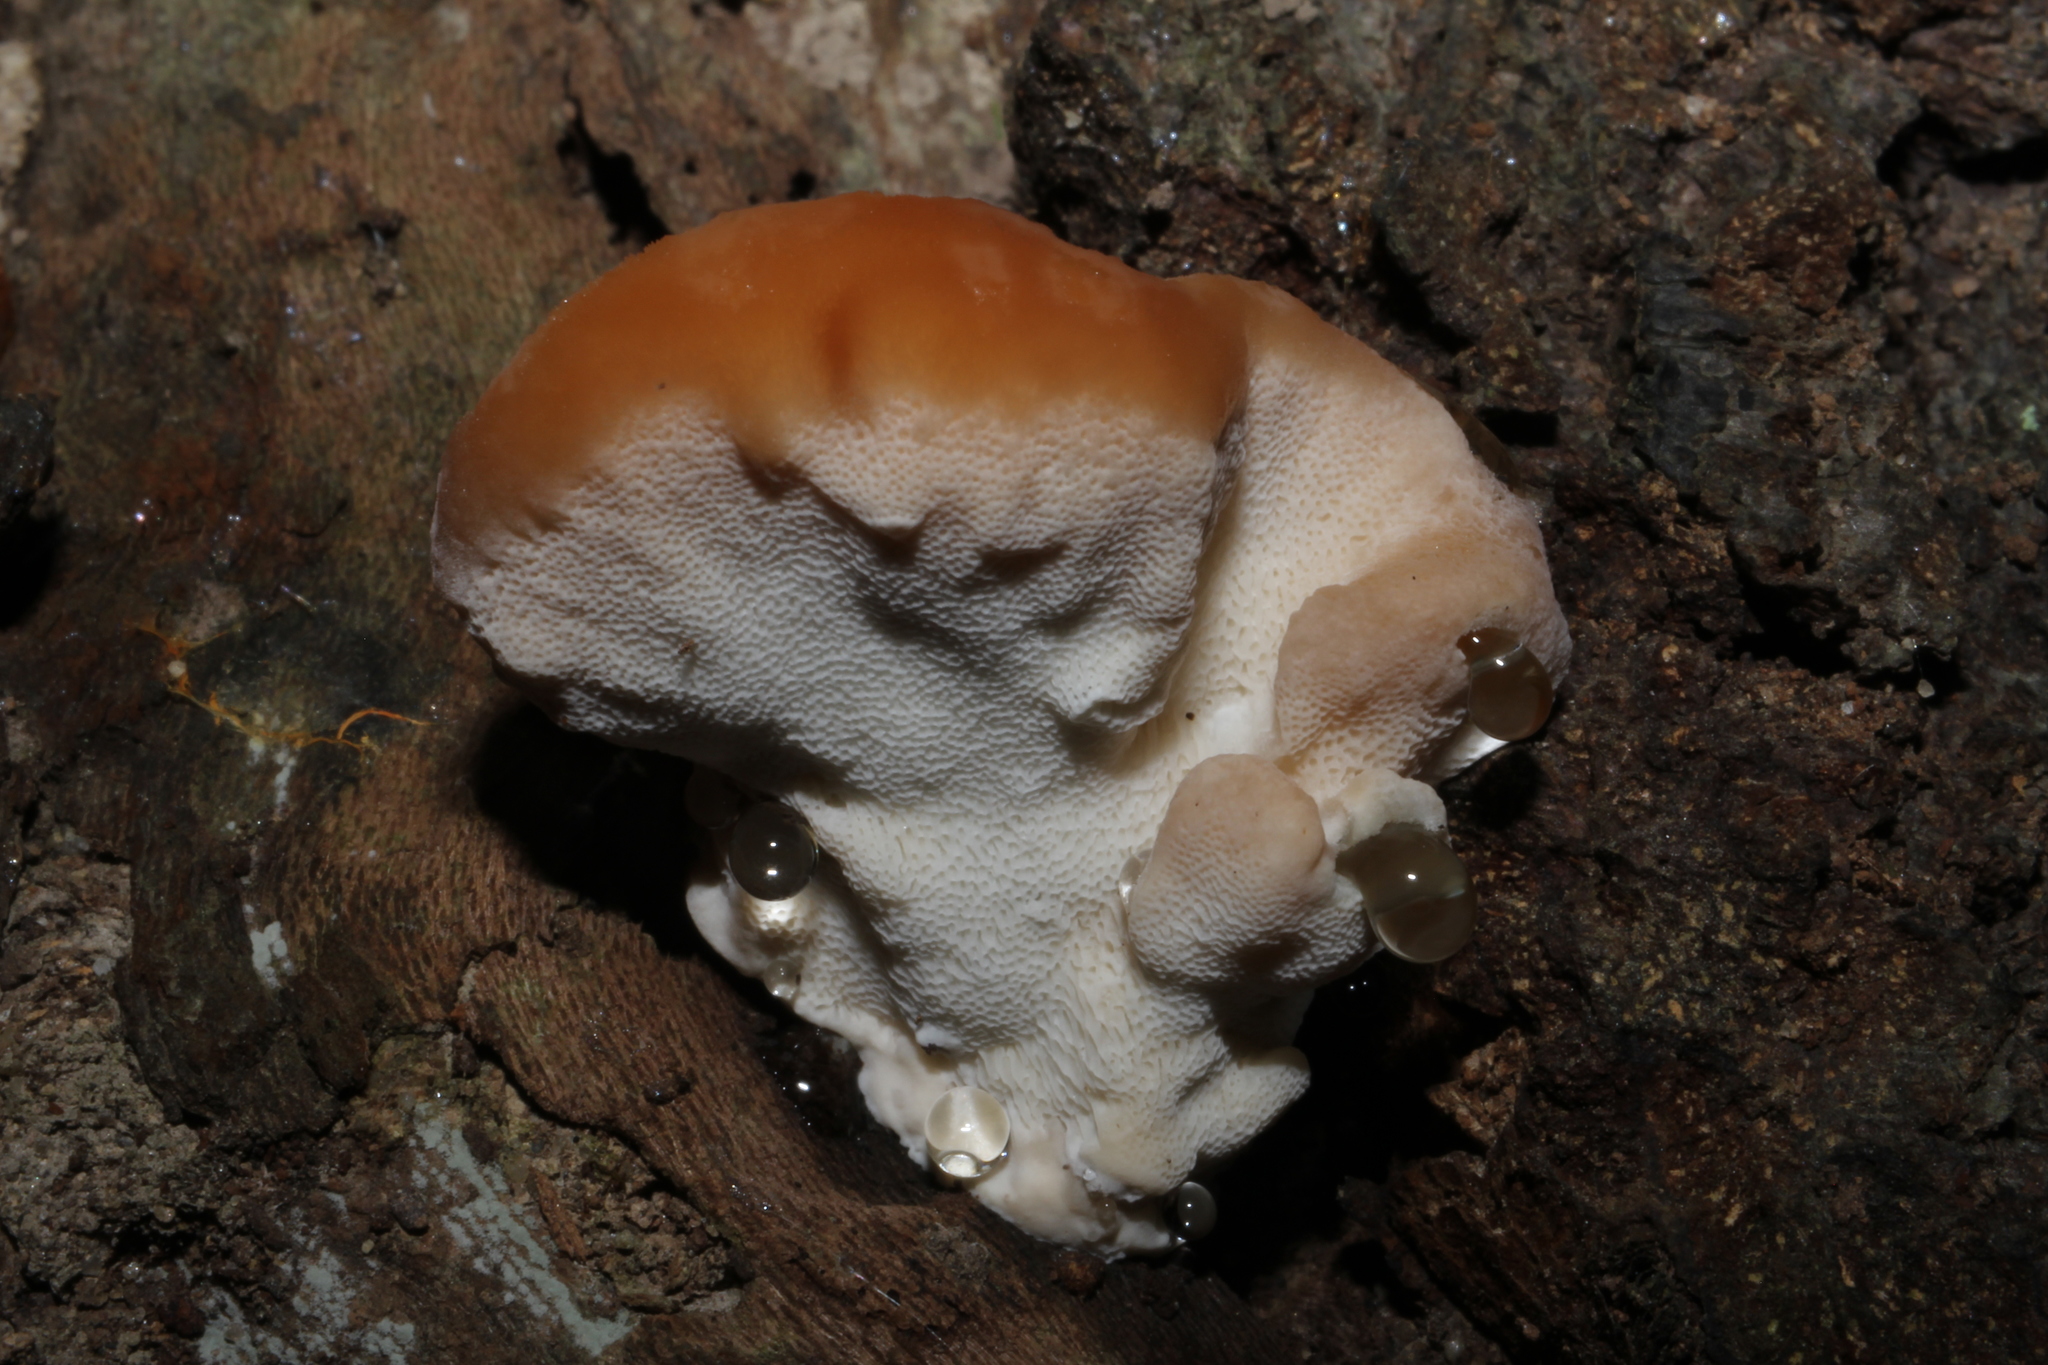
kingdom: Fungi
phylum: Basidiomycota
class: Agaricomycetes
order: Polyporales
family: Fomitopsidaceae
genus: Niveoporofomes
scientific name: Niveoporofomes spraguei
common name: Green cheese polypore
